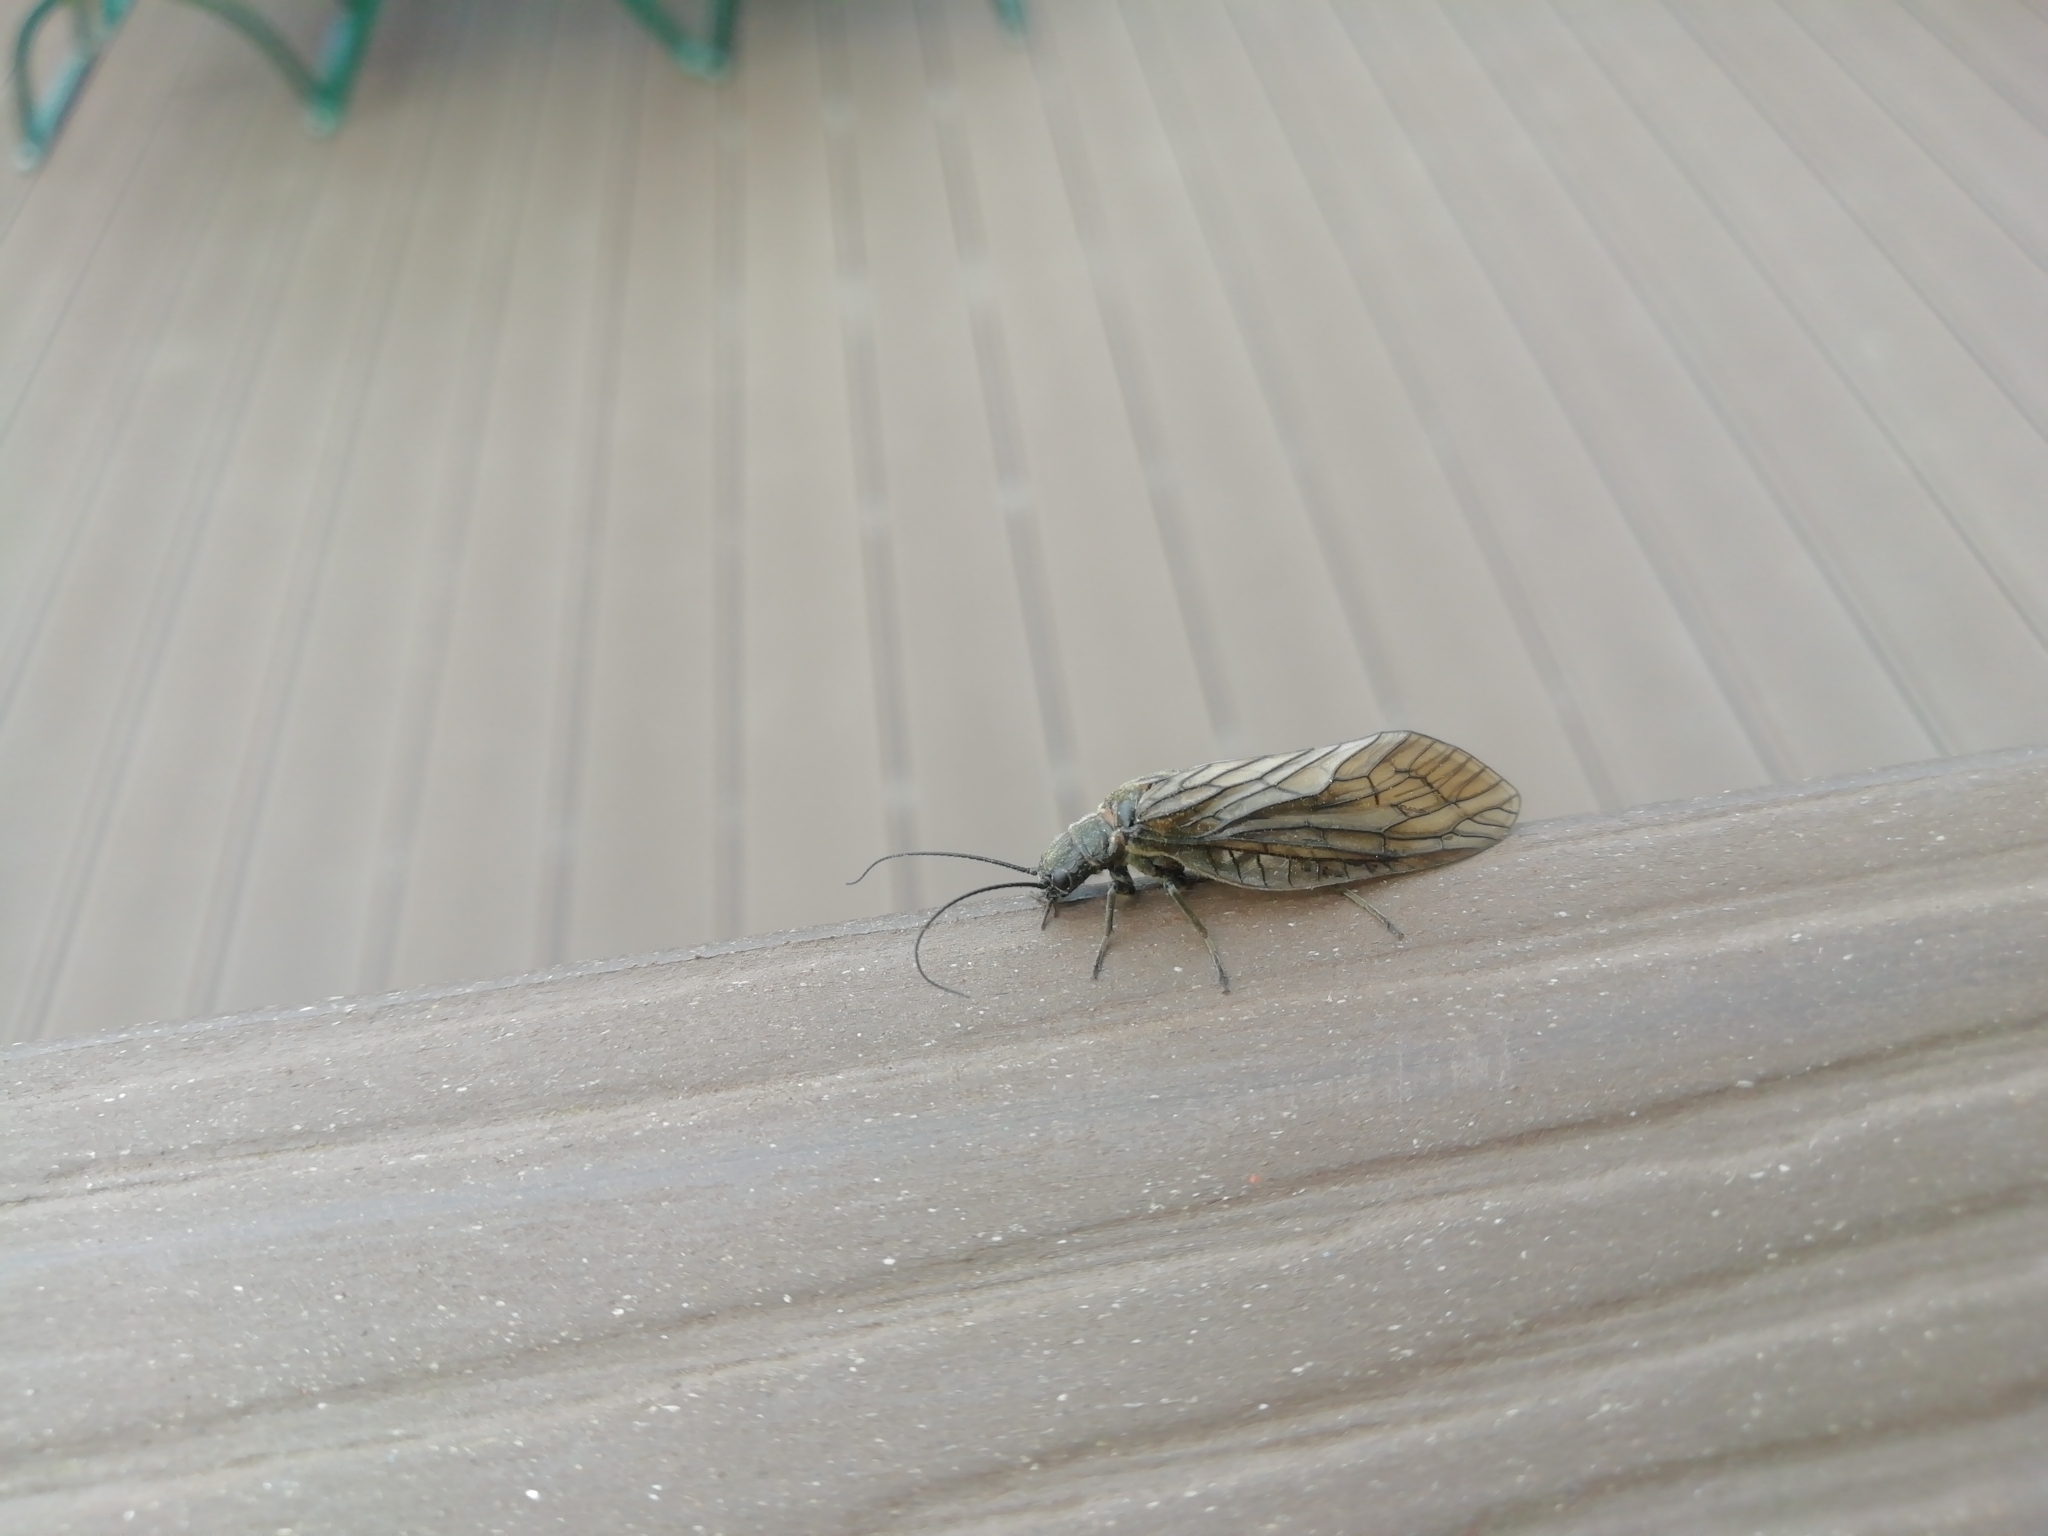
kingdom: Animalia
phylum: Arthropoda
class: Insecta
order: Megaloptera
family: Sialidae
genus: Sialis
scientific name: Sialis
